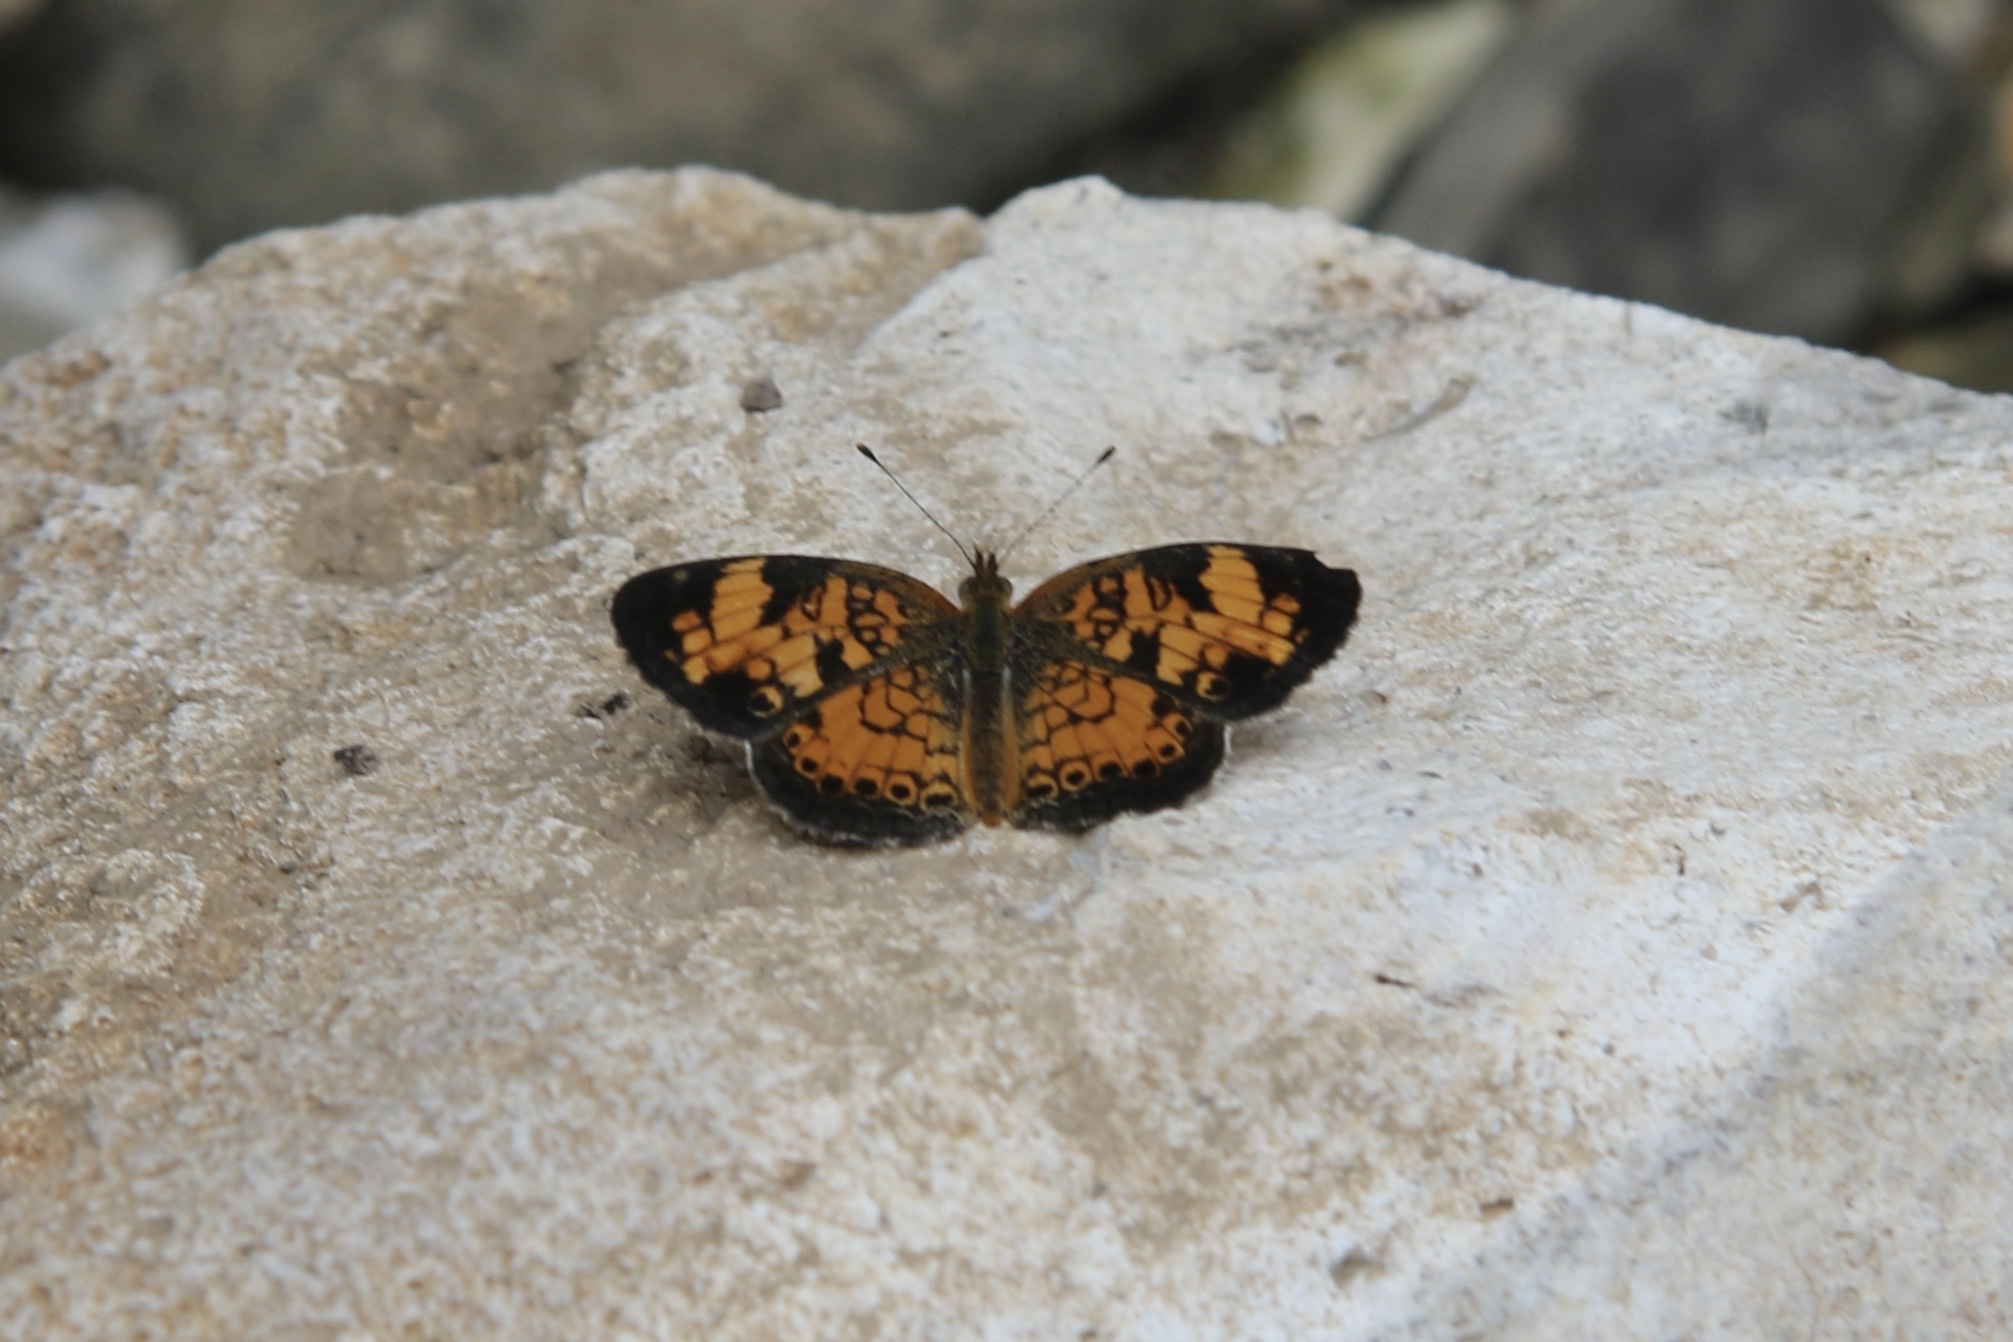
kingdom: Animalia
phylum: Arthropoda
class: Insecta
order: Lepidoptera
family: Nymphalidae
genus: Phyciodes
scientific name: Phyciodes tharos
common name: Pearl crescent
